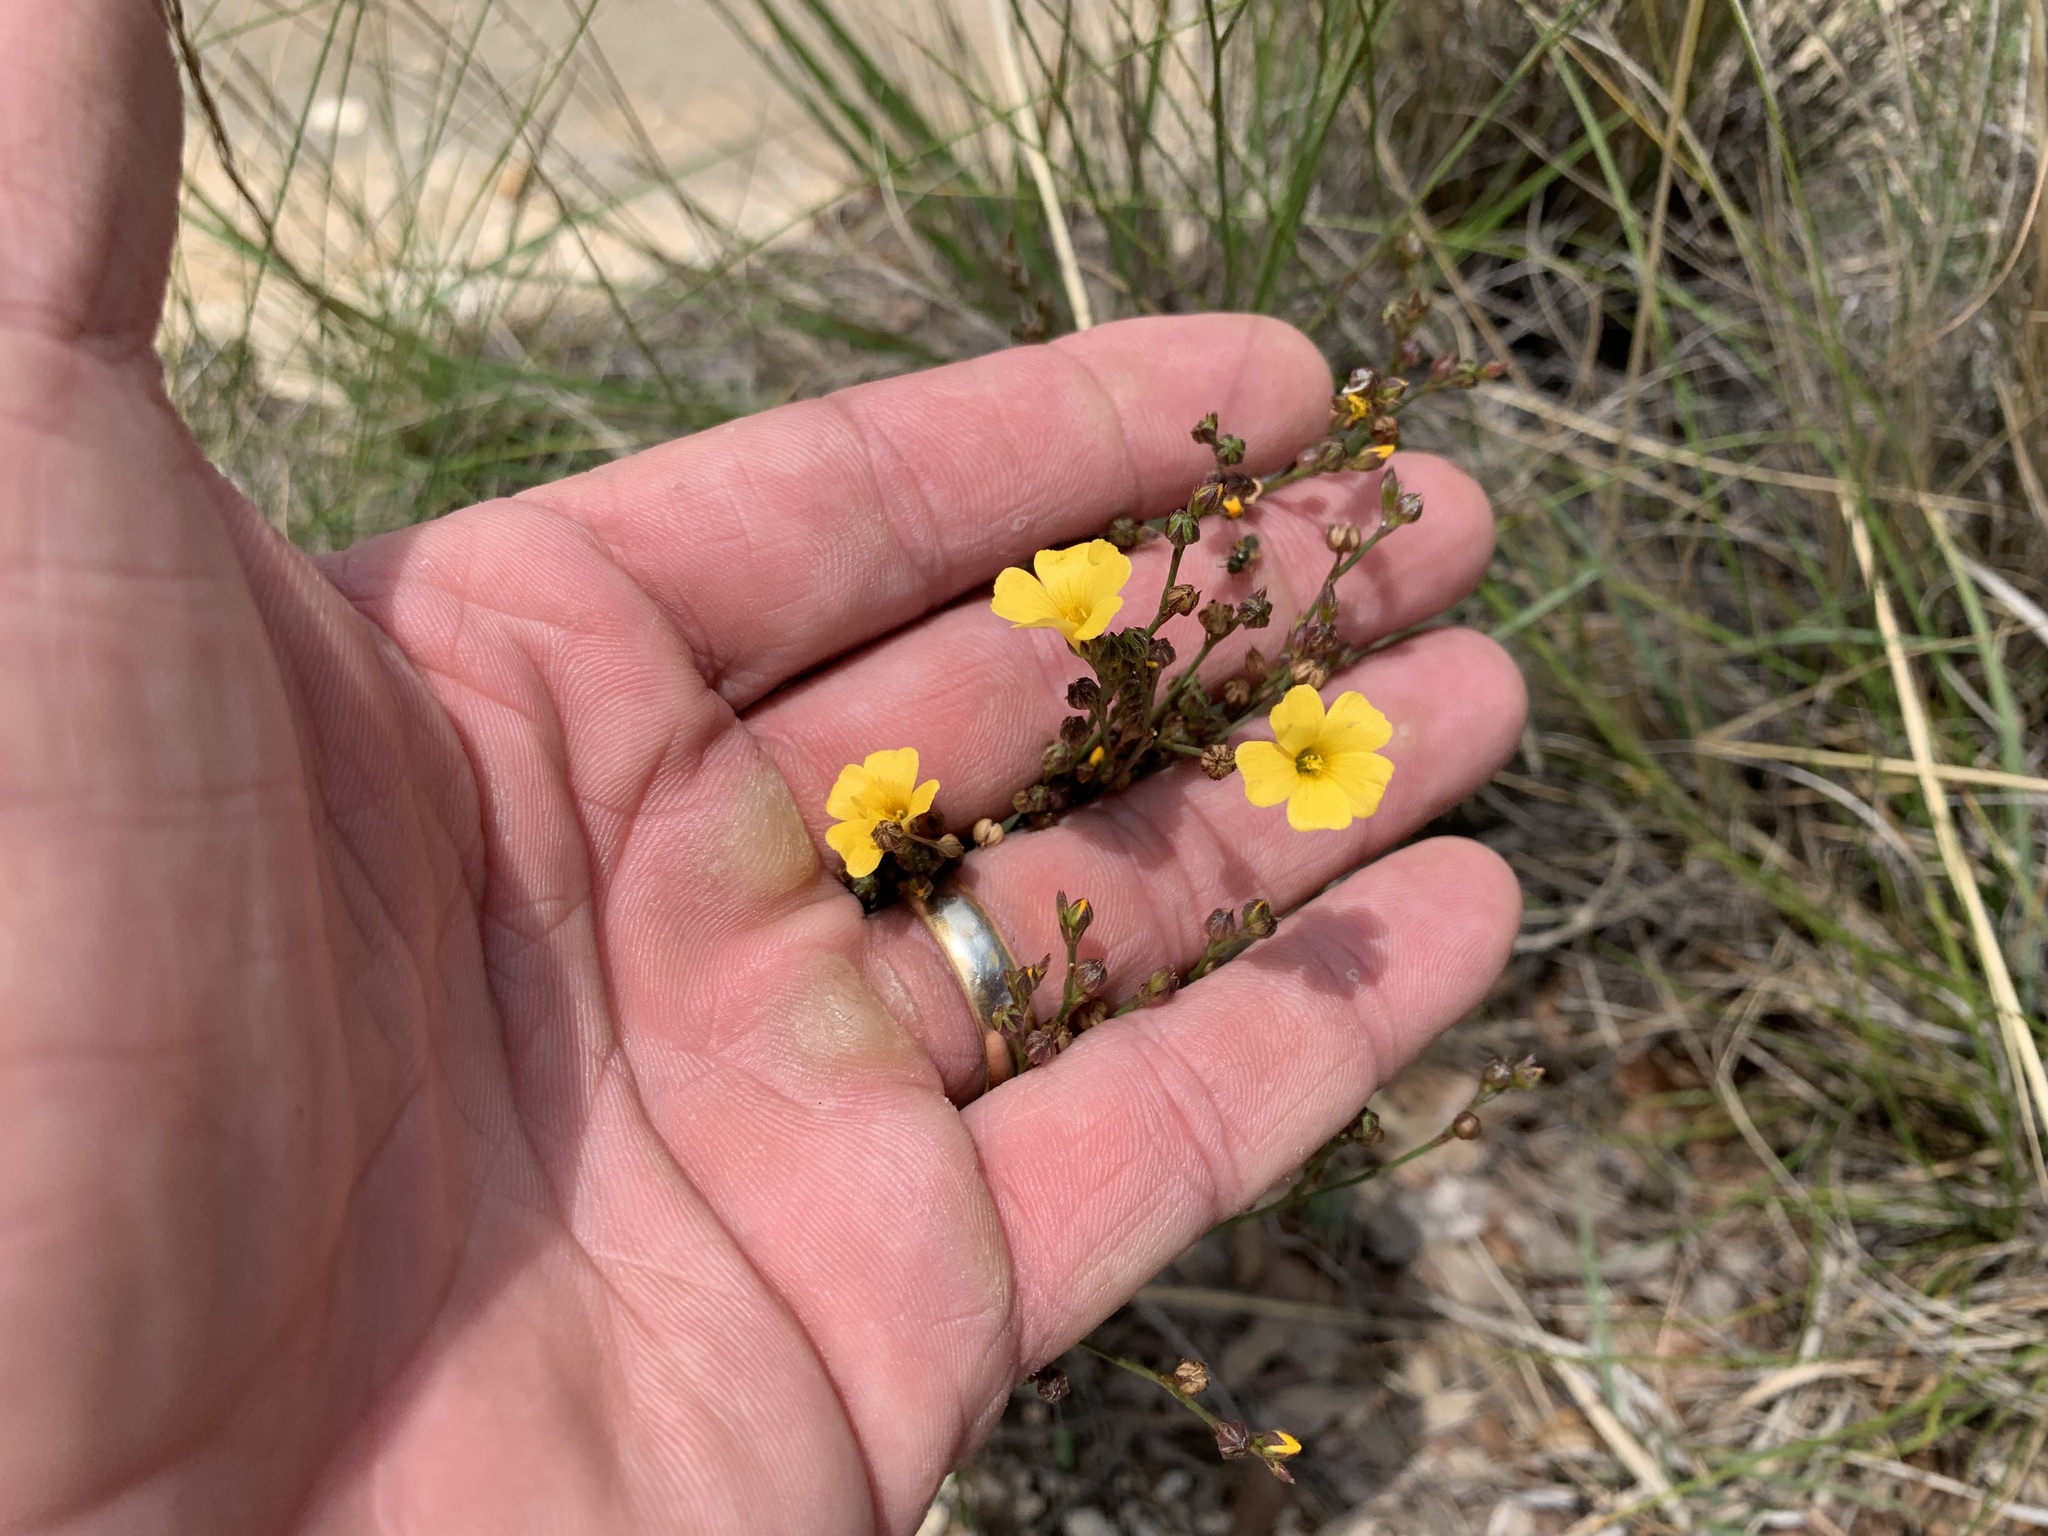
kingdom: Plantae
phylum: Tracheophyta
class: Magnoliopsida
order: Malpighiales
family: Linaceae
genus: Linum
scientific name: Linum rupestre
